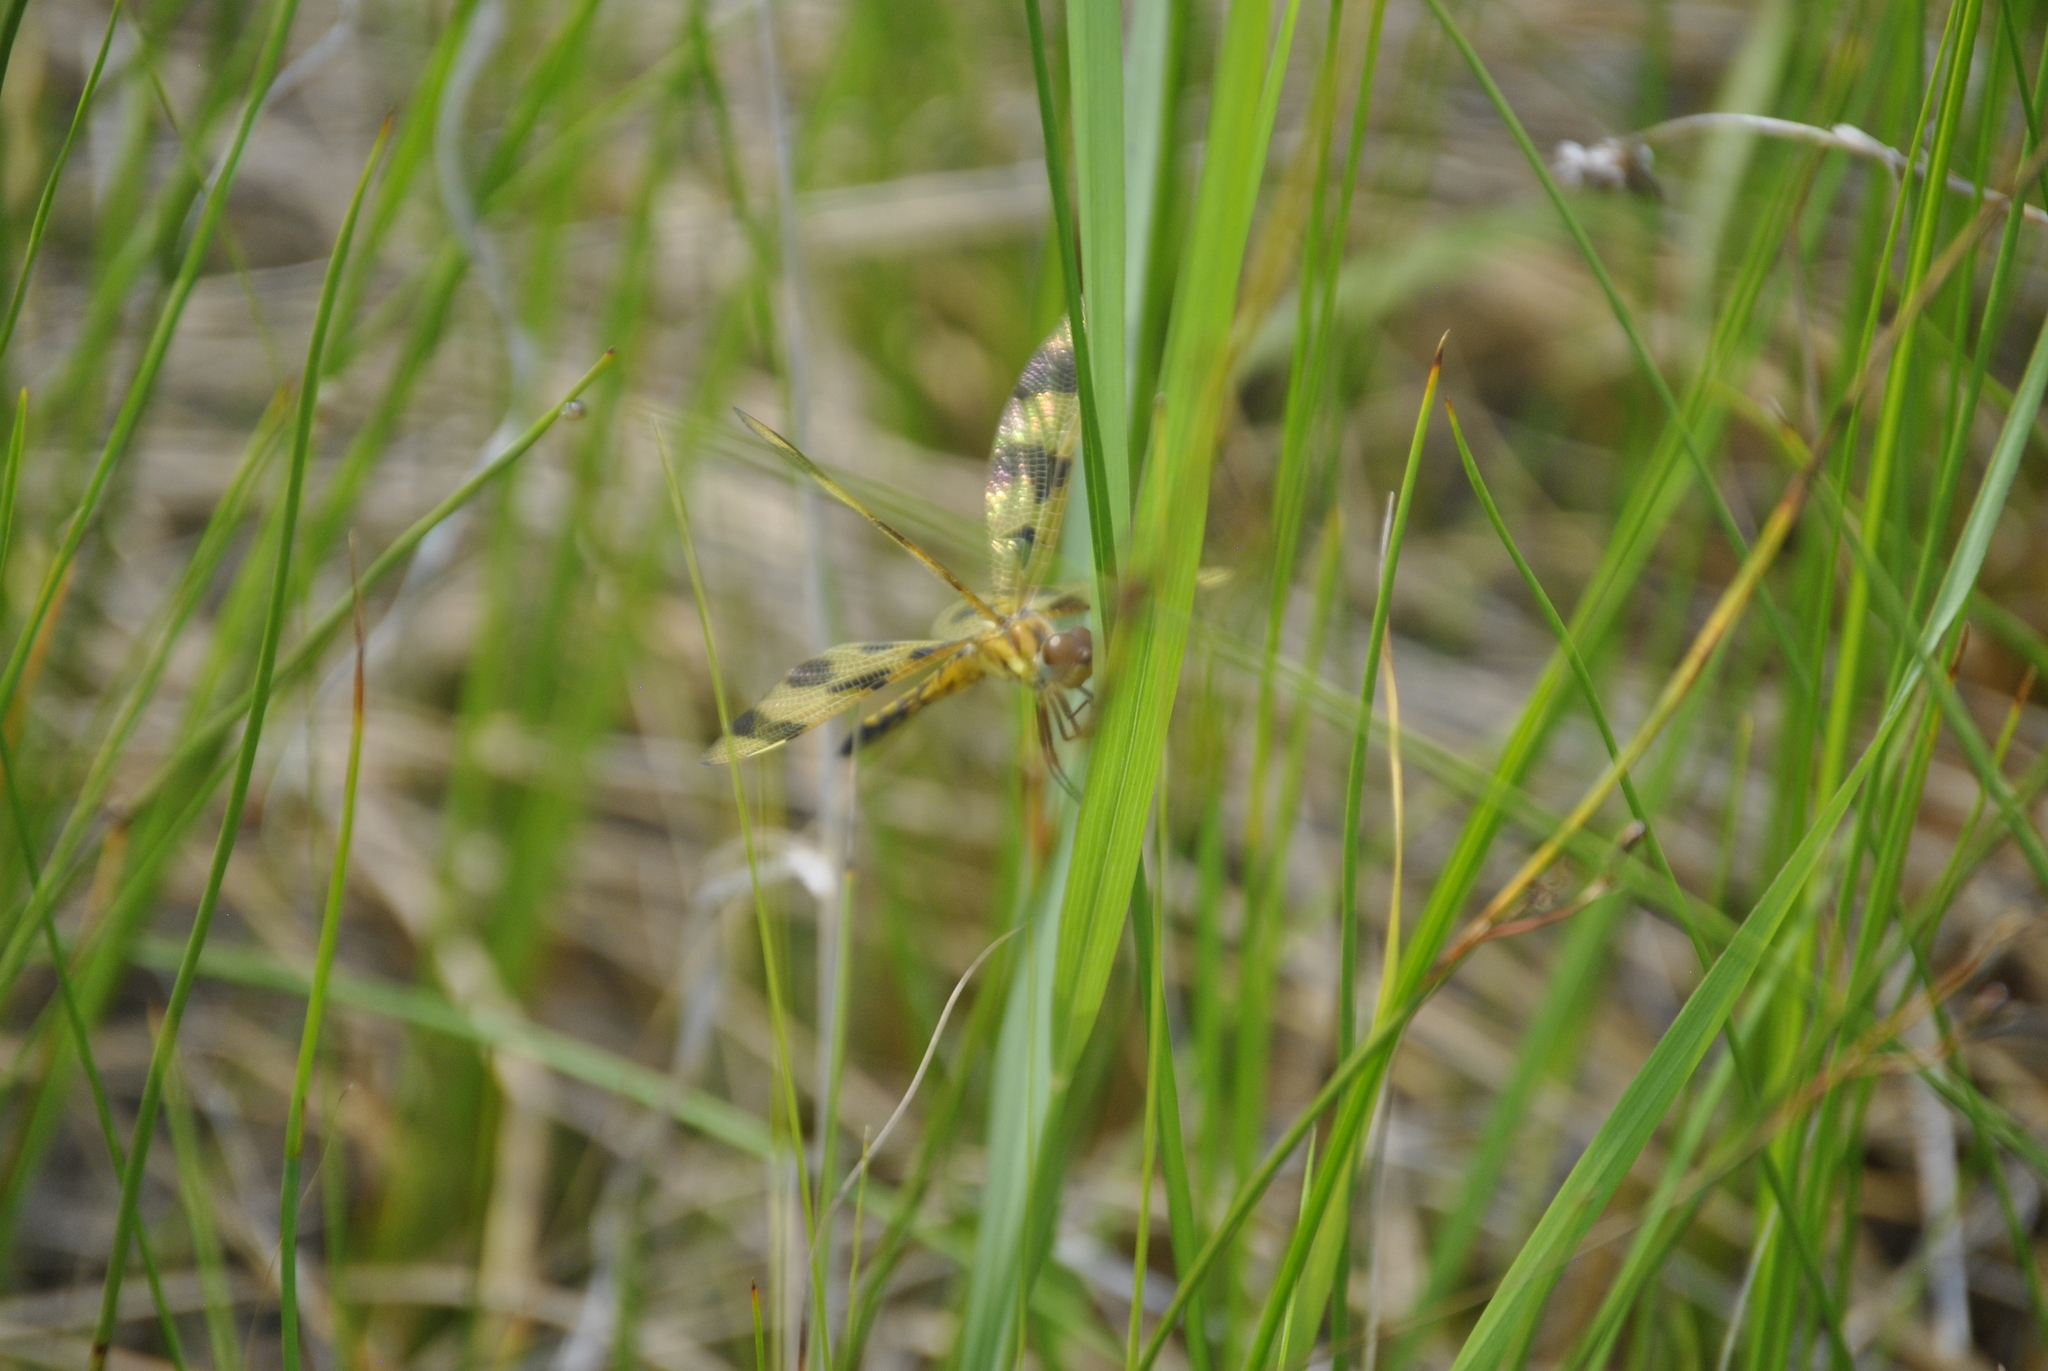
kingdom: Animalia
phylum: Arthropoda
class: Insecta
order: Odonata
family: Libellulidae
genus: Celithemis
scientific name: Celithemis eponina
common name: Halloween pennant
